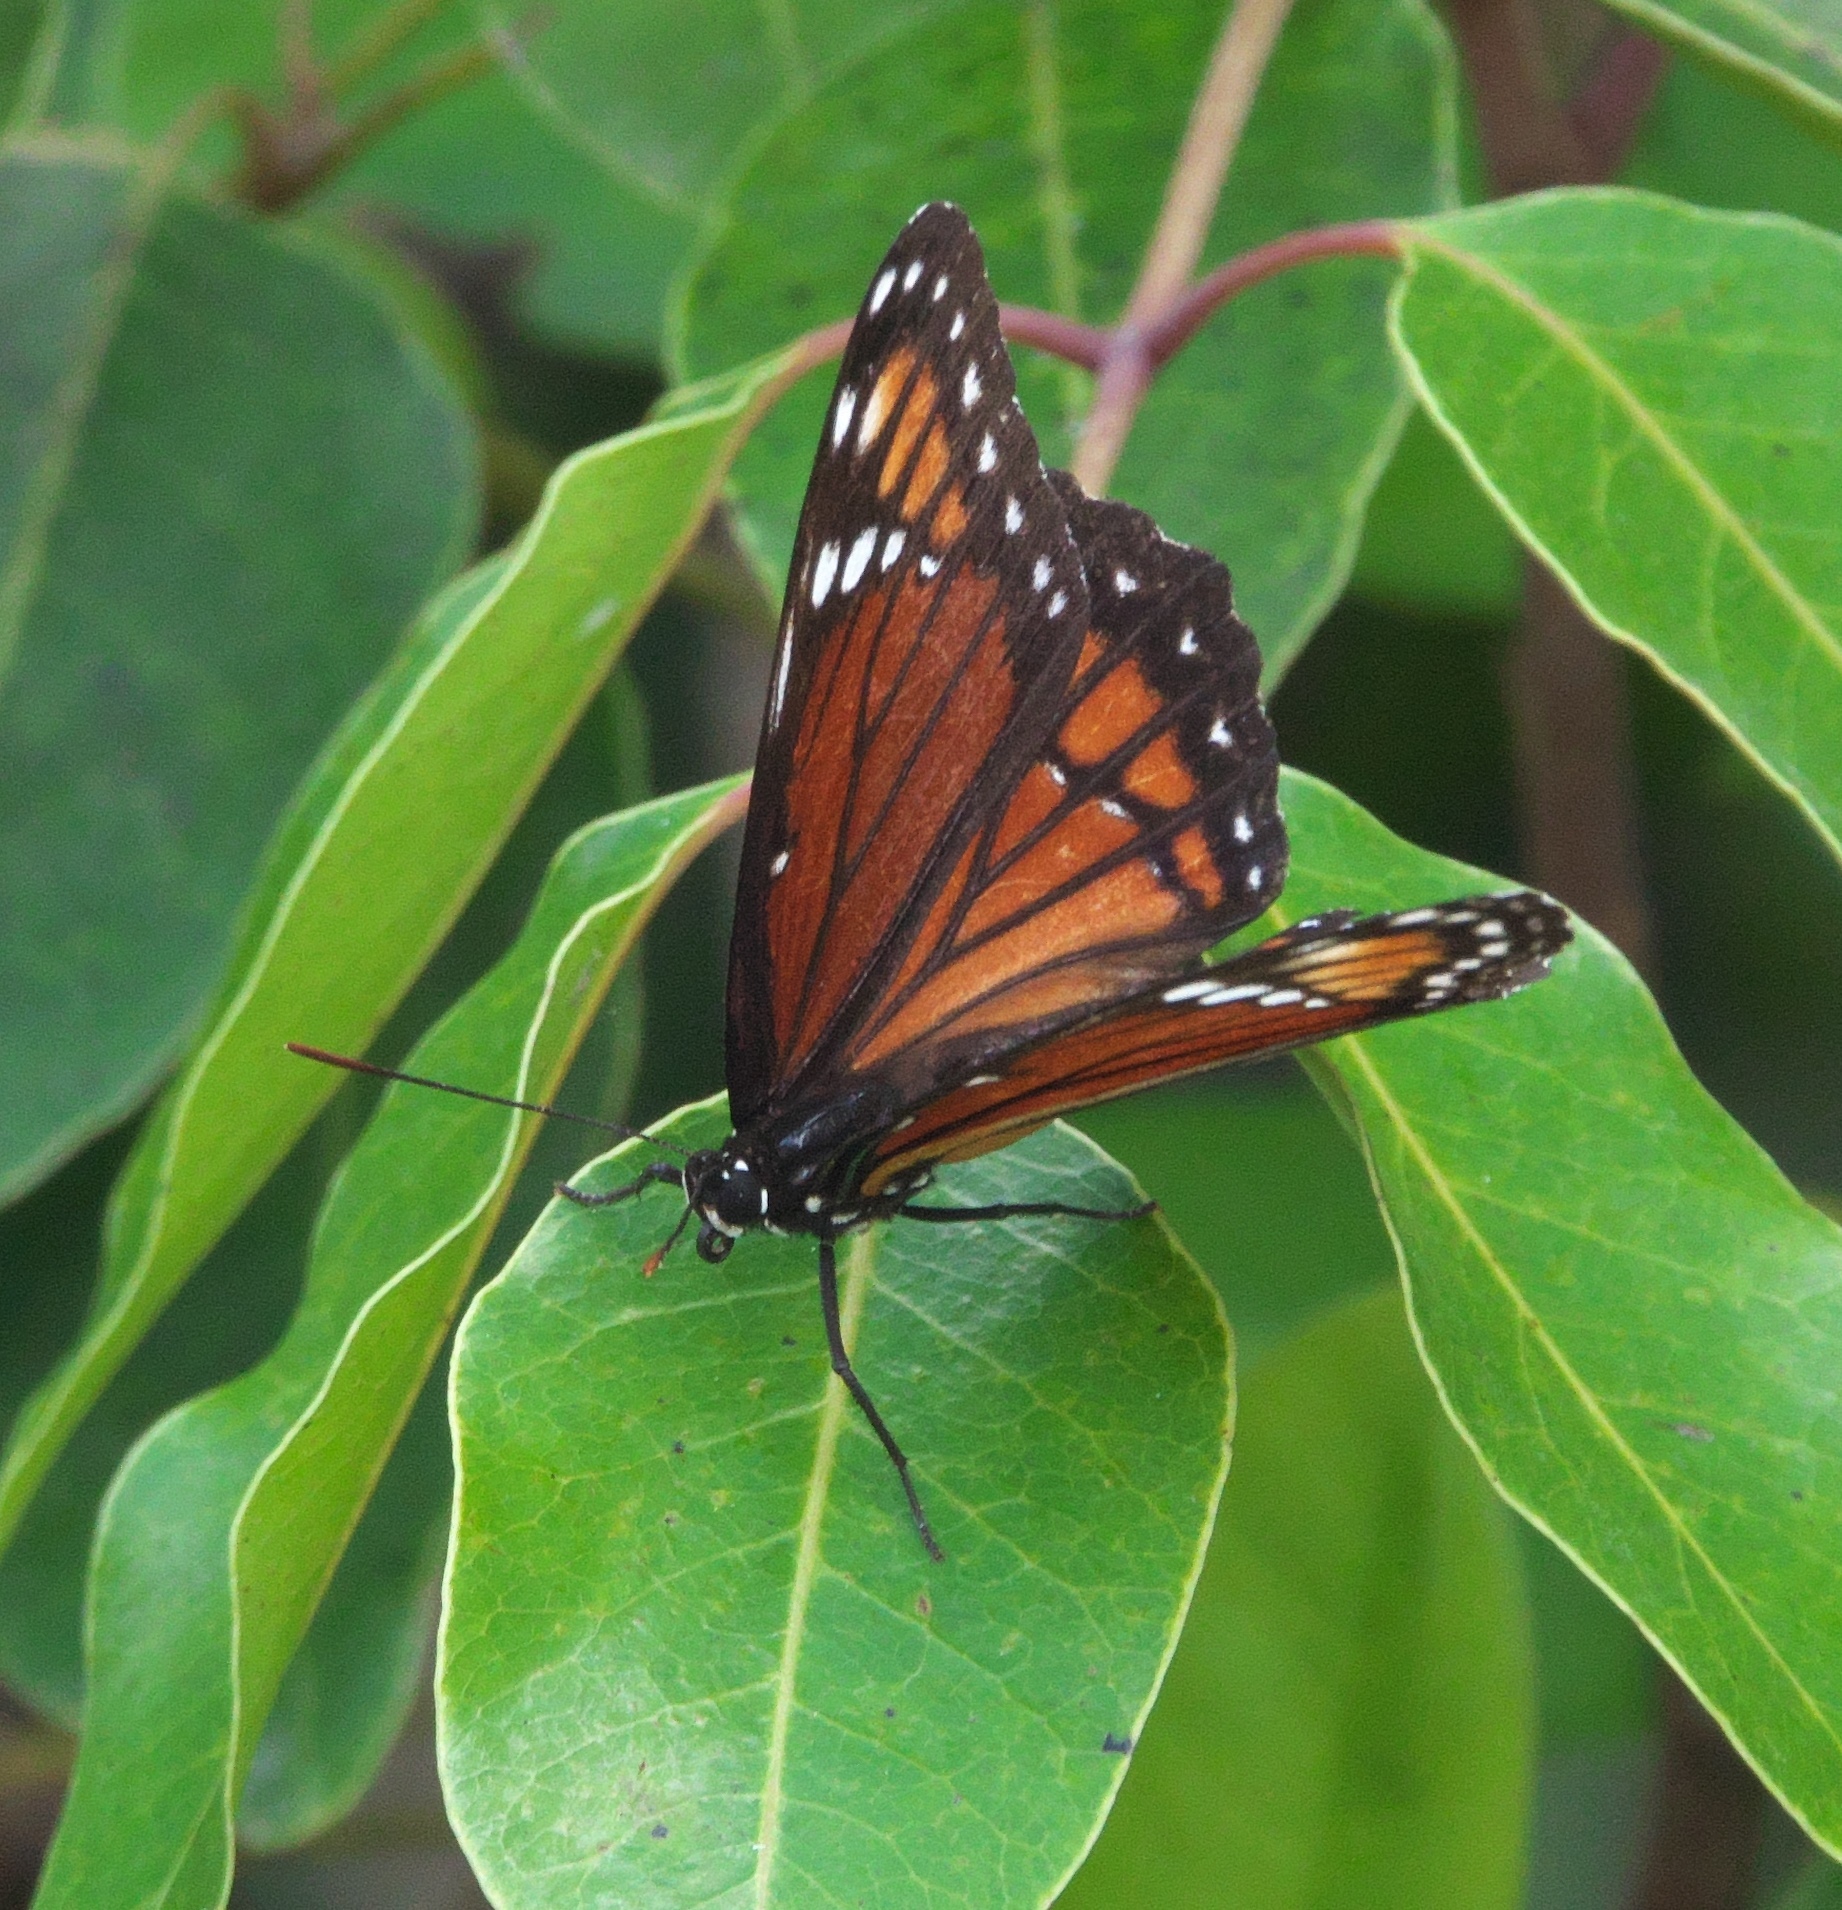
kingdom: Animalia
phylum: Arthropoda
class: Insecta
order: Lepidoptera
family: Nymphalidae
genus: Limenitis
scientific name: Limenitis archippus
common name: Viceroy
